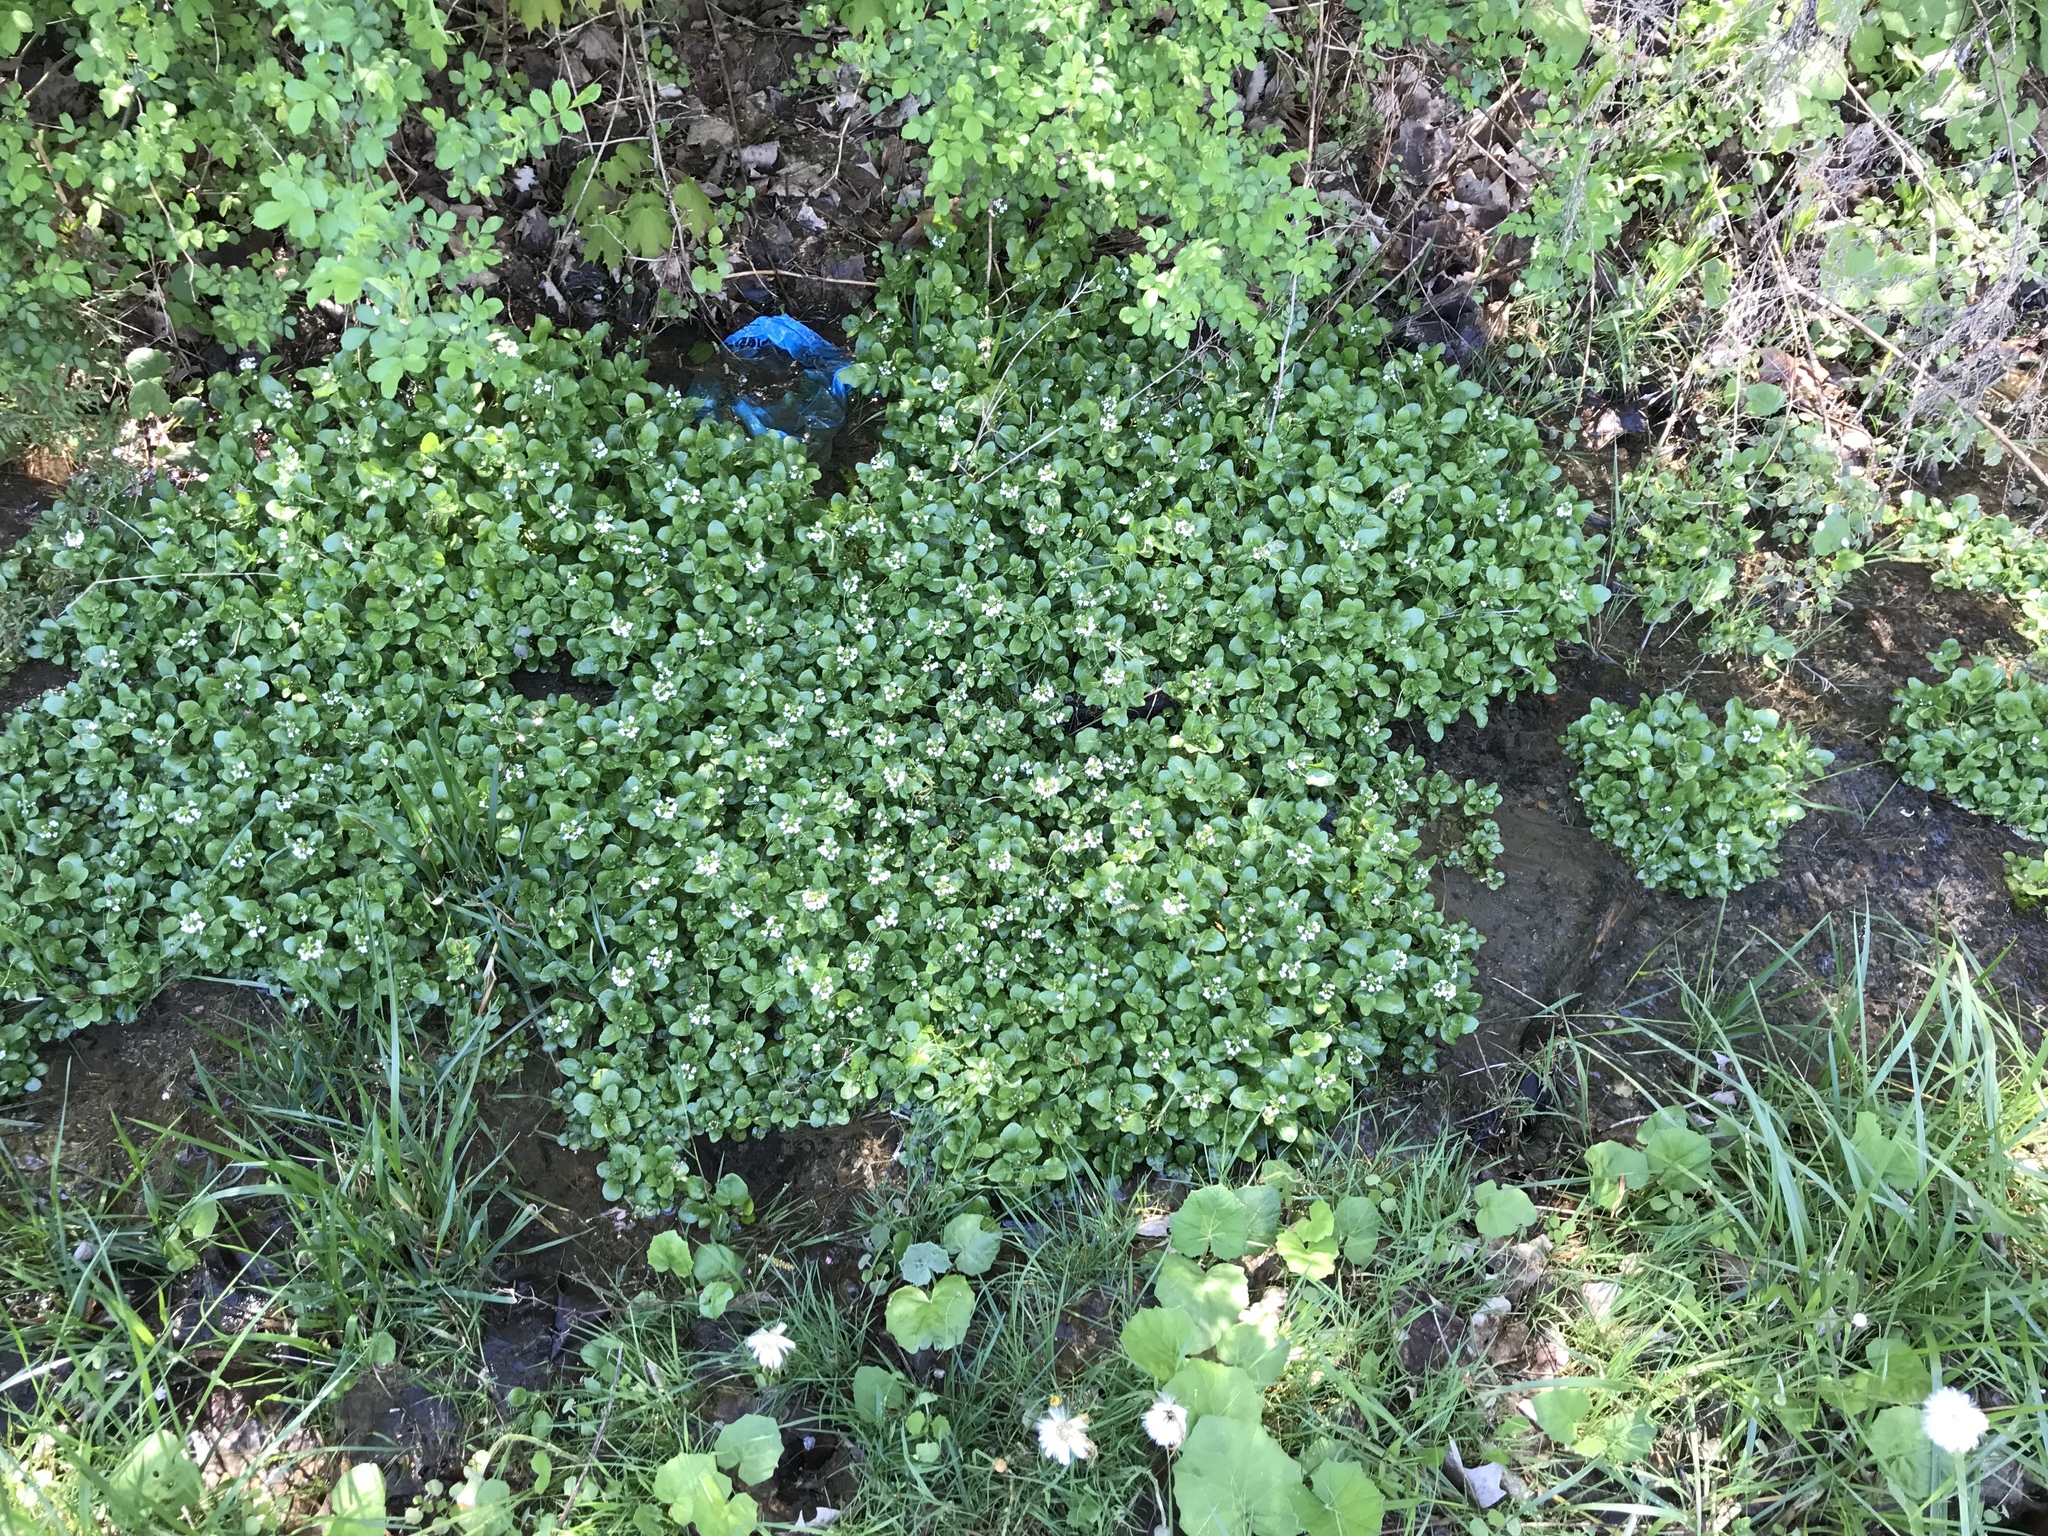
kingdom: Plantae
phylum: Tracheophyta
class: Magnoliopsida
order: Brassicales
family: Brassicaceae
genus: Nasturtium
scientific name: Nasturtium officinale
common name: Watercress
